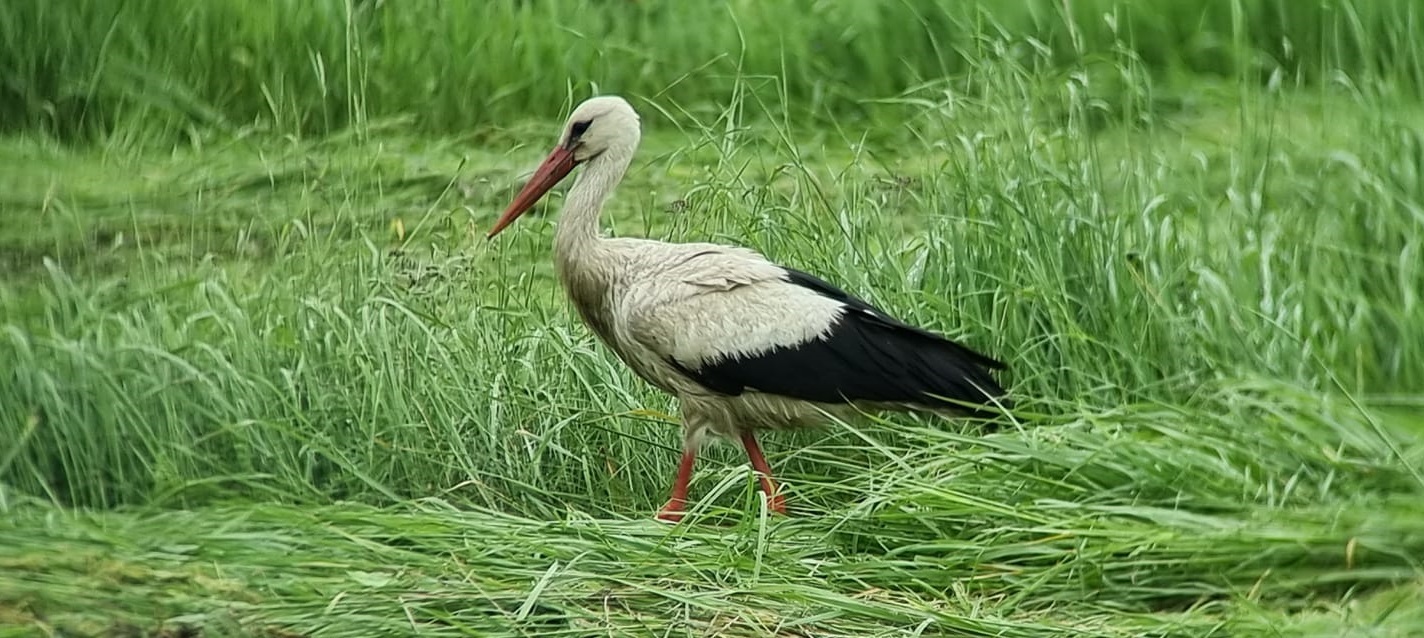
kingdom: Animalia
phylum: Chordata
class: Aves
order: Ciconiiformes
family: Ciconiidae
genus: Ciconia
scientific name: Ciconia ciconia
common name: White stork
